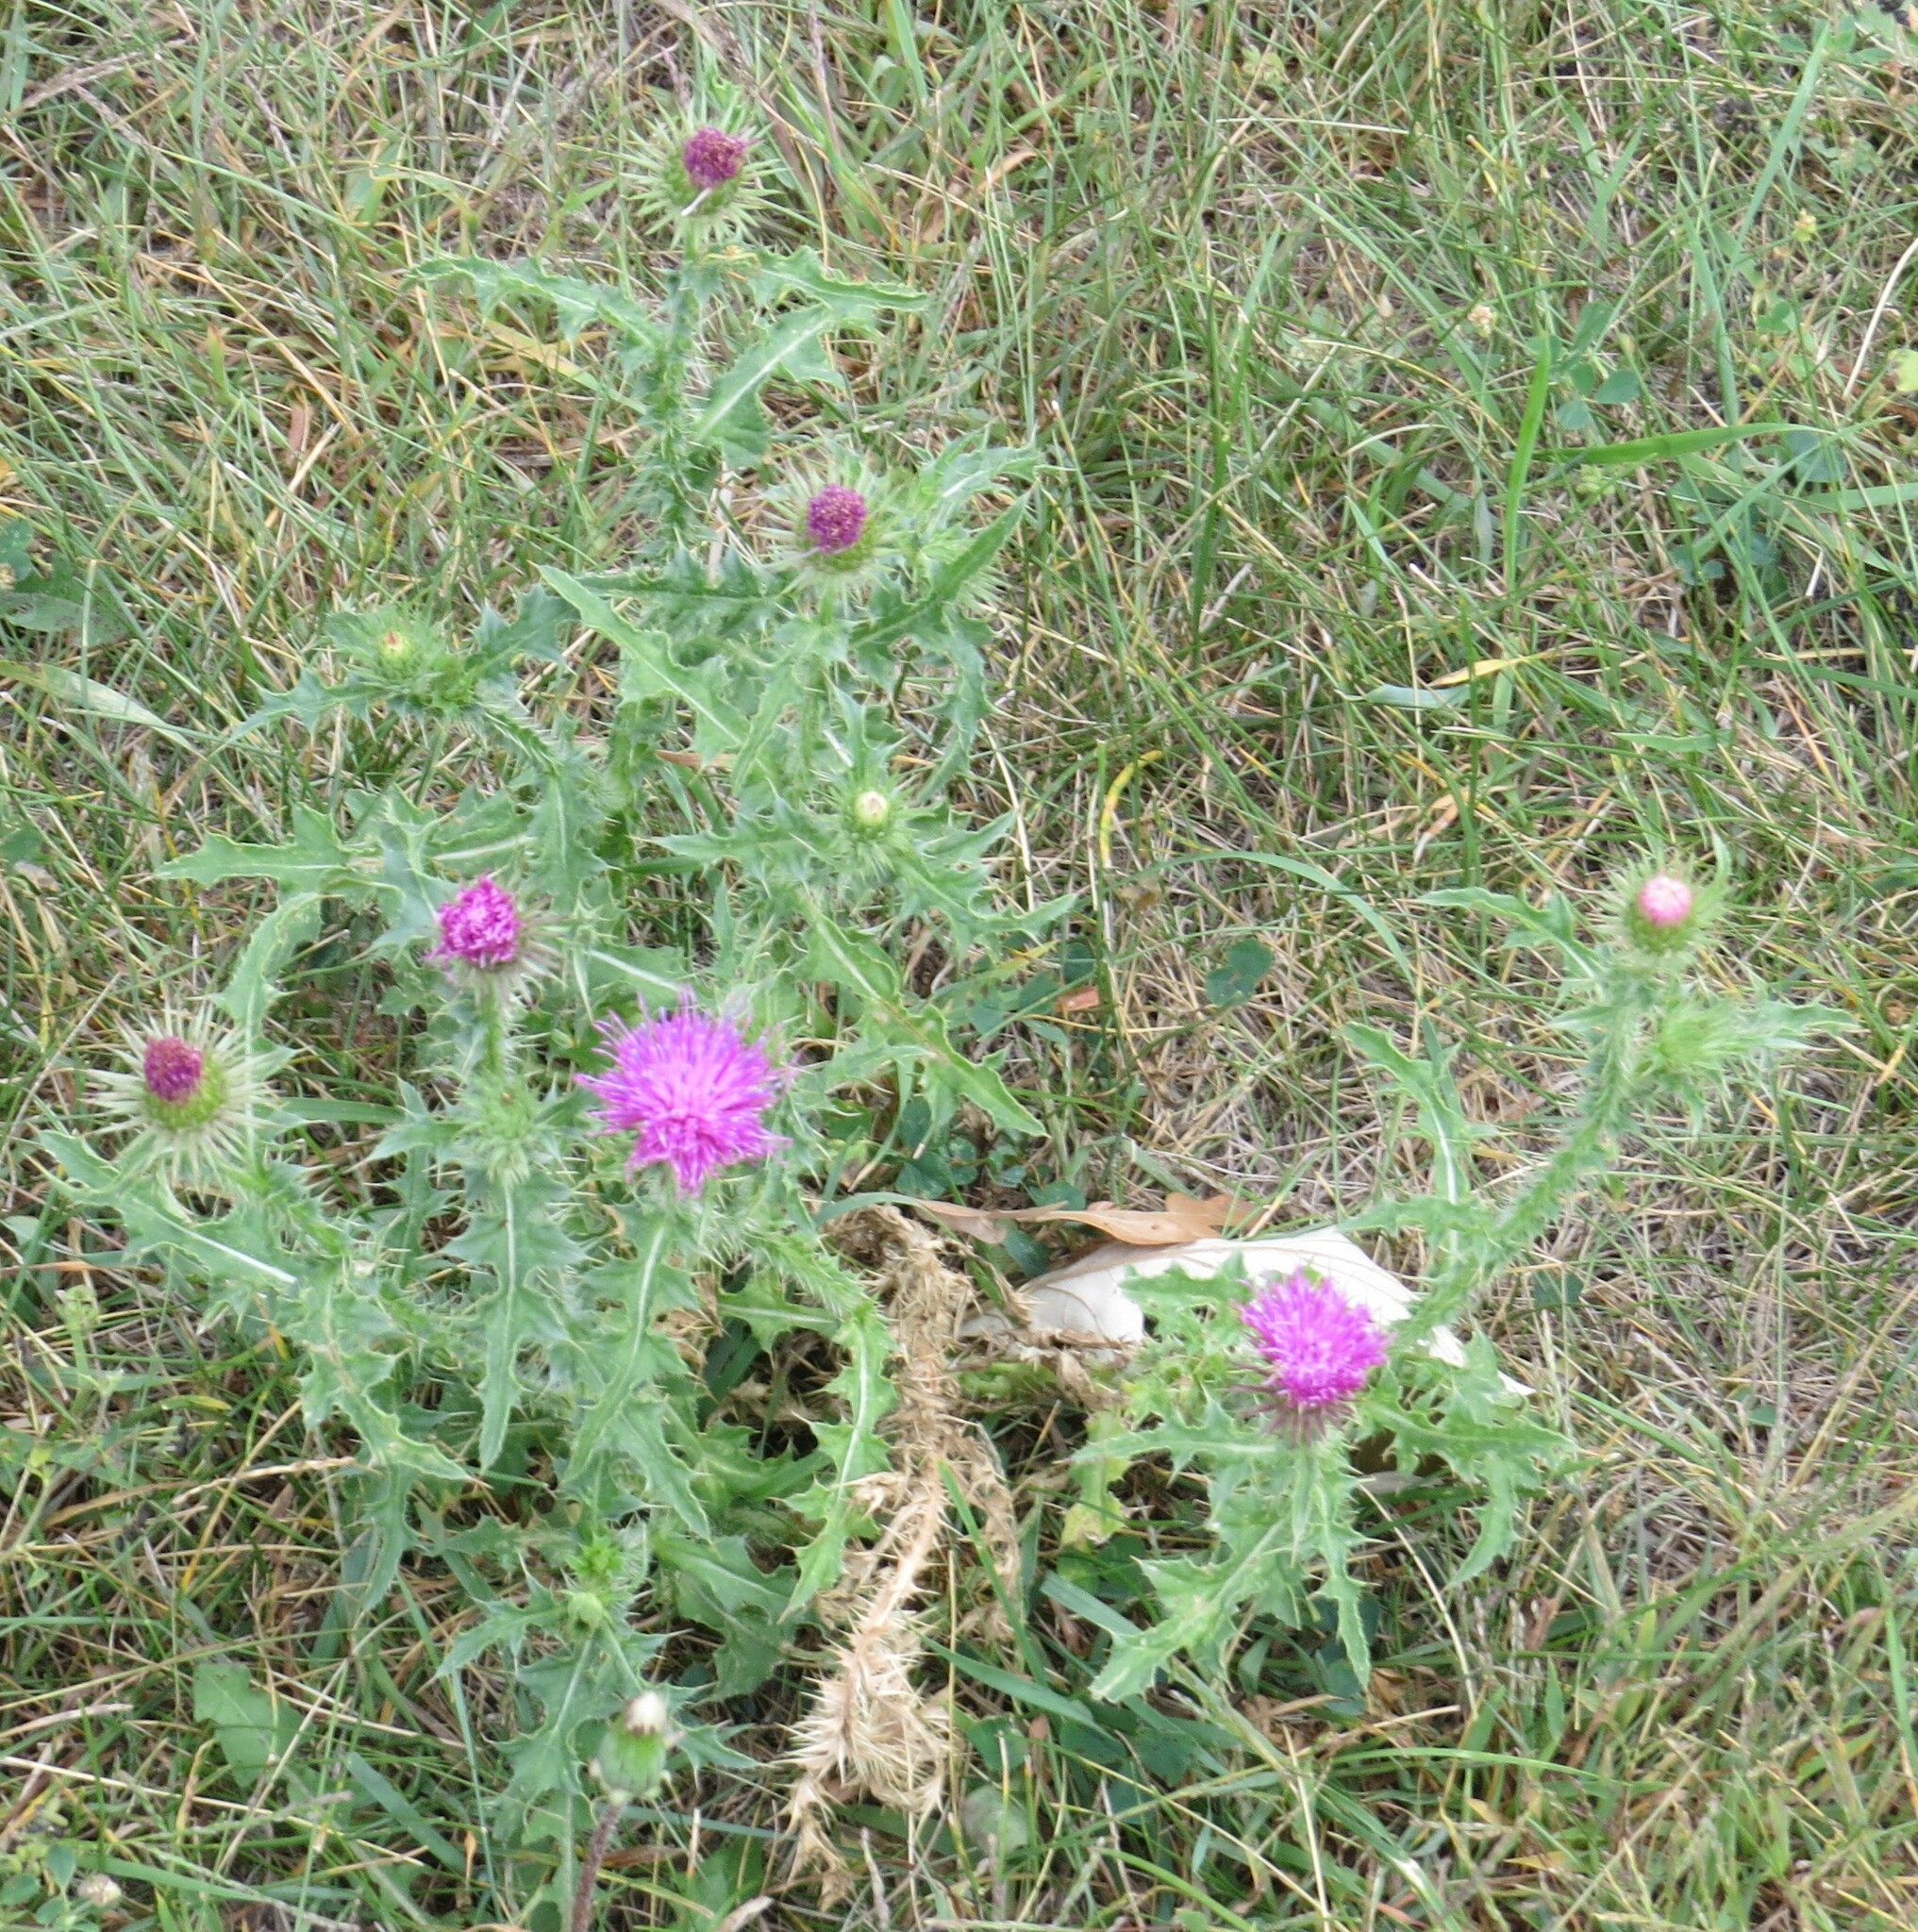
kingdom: Plantae
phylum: Tracheophyta
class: Magnoliopsida
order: Asterales
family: Asteraceae
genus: Carduus
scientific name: Carduus acanthoides
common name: Plumeless thistle
